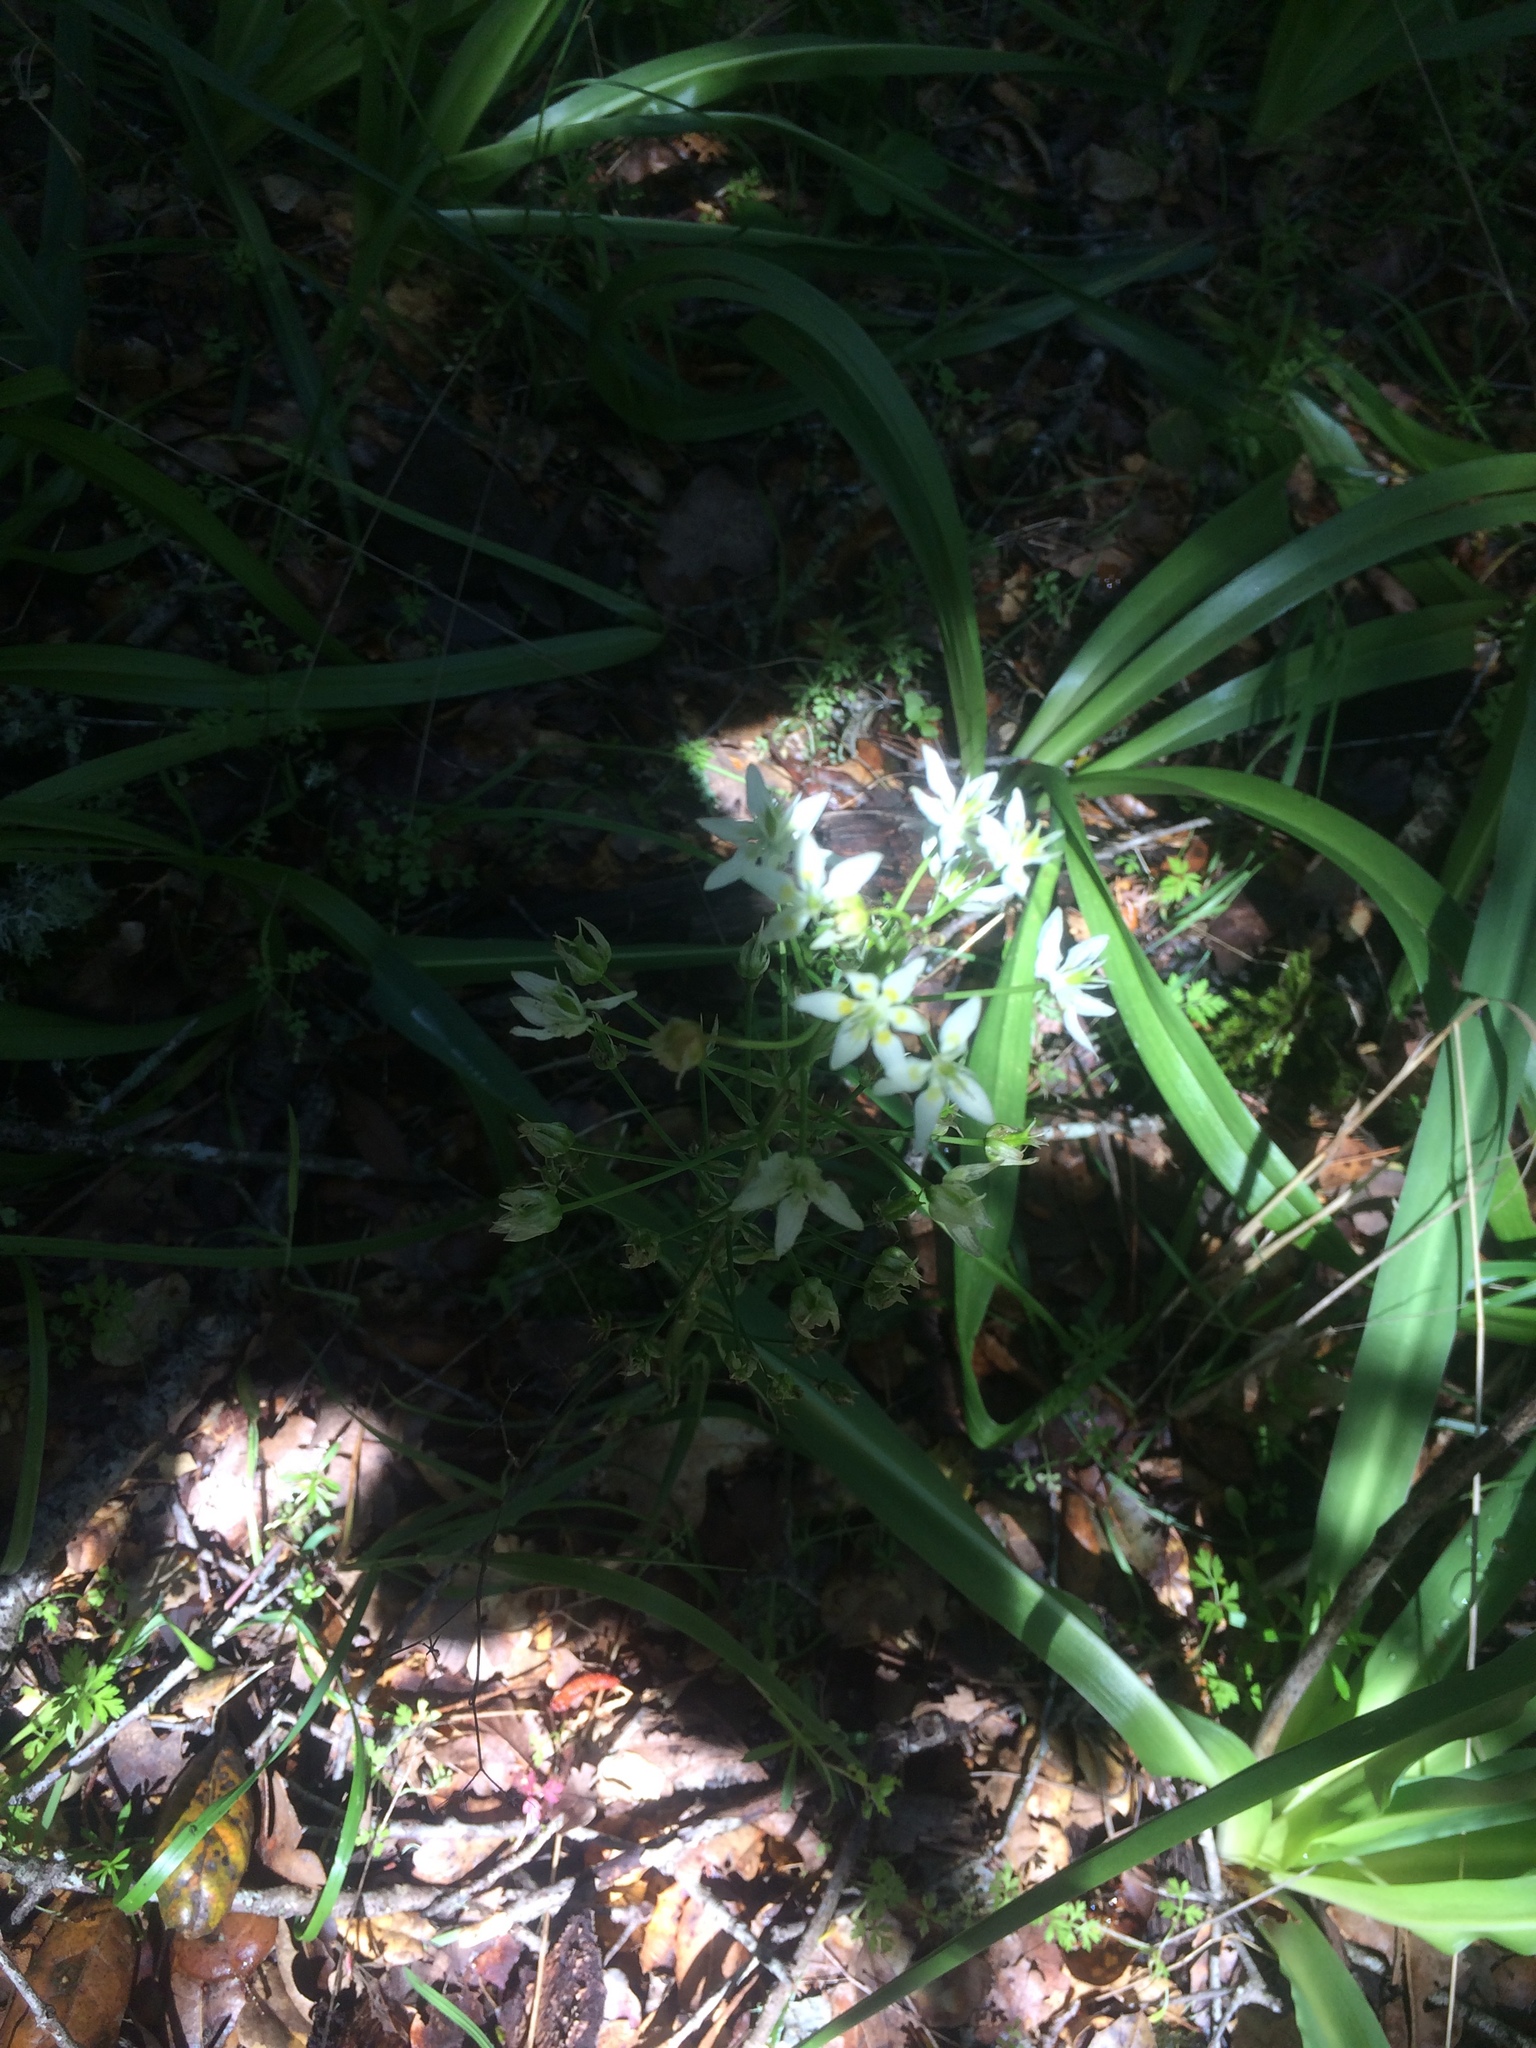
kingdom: Plantae
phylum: Tracheophyta
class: Liliopsida
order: Liliales
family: Melanthiaceae
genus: Toxicoscordion
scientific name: Toxicoscordion fremontii
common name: Fremont's death camas
